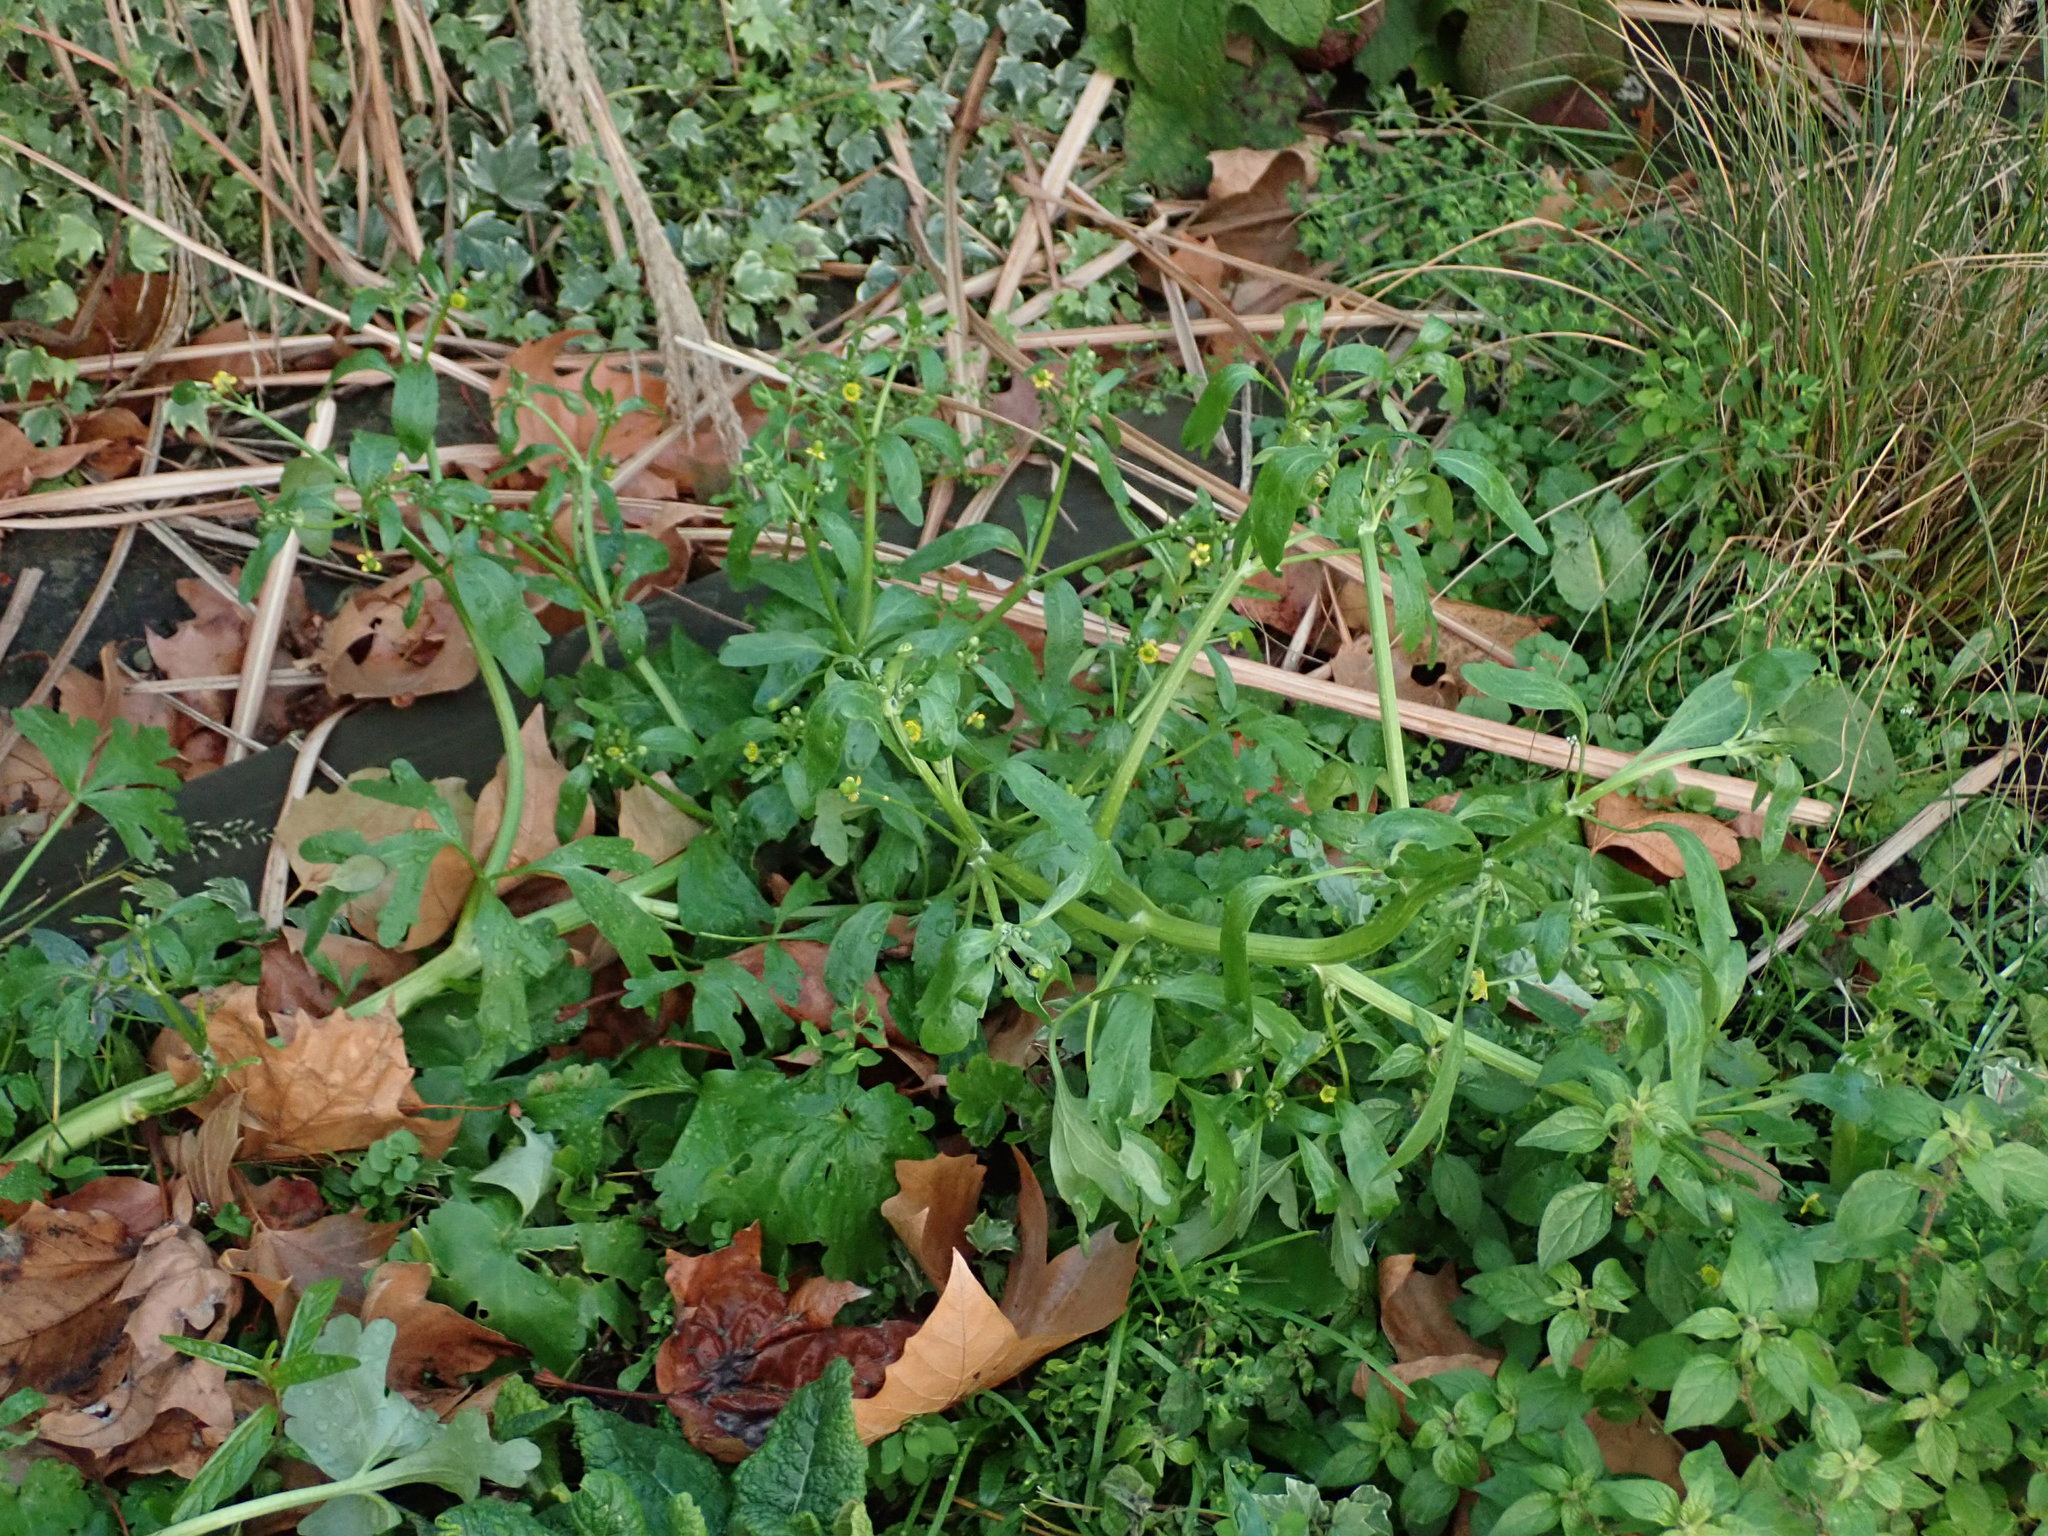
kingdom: Plantae
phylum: Tracheophyta
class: Magnoliopsida
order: Ranunculales
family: Ranunculaceae
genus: Ranunculus
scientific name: Ranunculus sceleratus
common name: Celery-leaved buttercup
